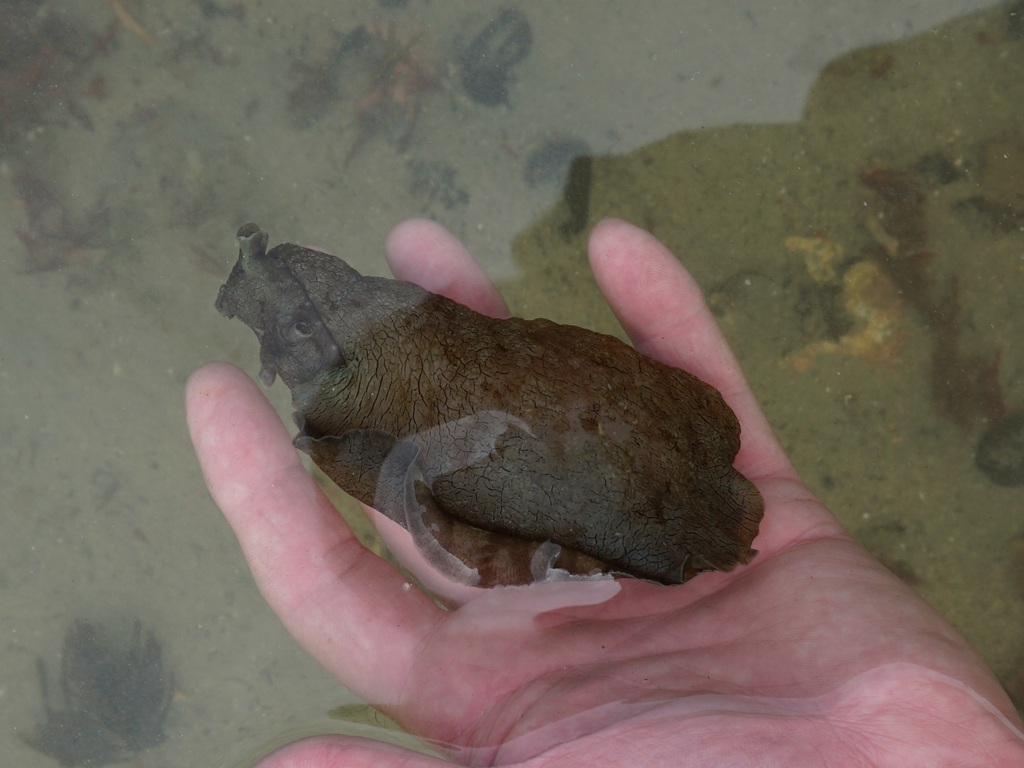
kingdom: Animalia
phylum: Mollusca
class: Gastropoda
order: Aplysiida
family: Aplysiidae
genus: Aplysia
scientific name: Aplysia keraudreni
